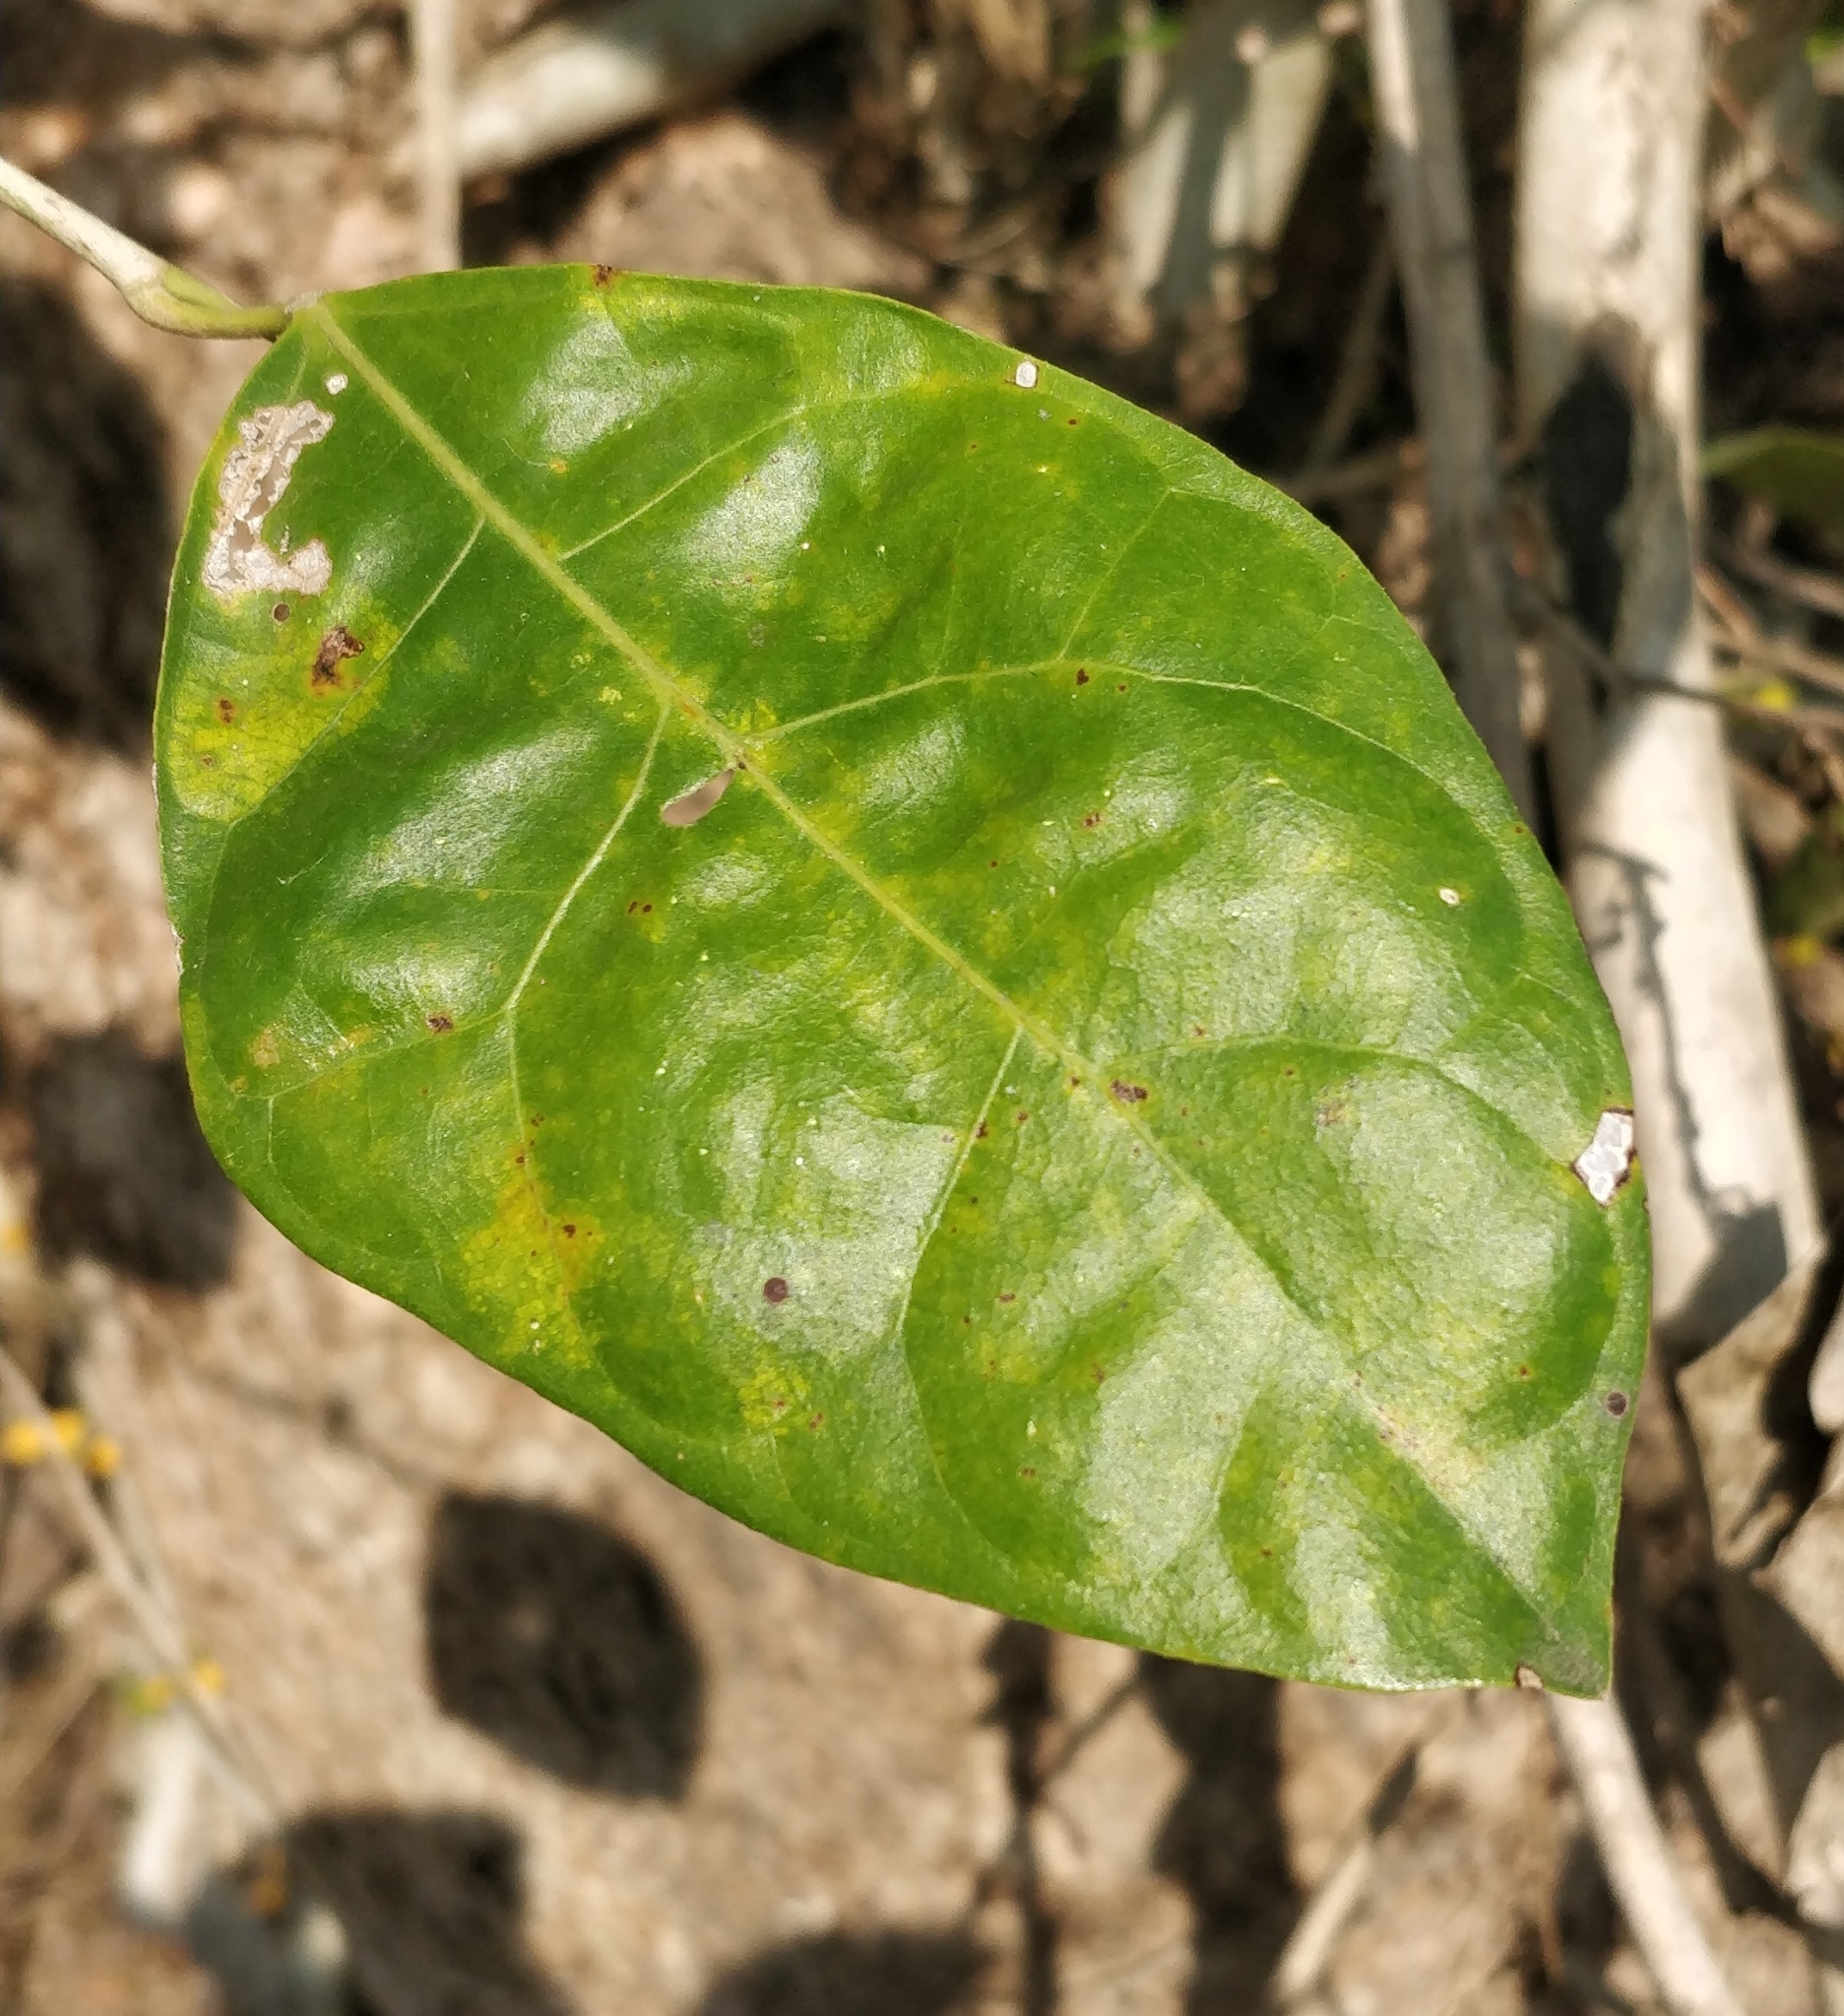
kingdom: Plantae
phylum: Tracheophyta
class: Magnoliopsida
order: Rosales
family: Moraceae
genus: Ficus
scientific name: Ficus tinctoria
